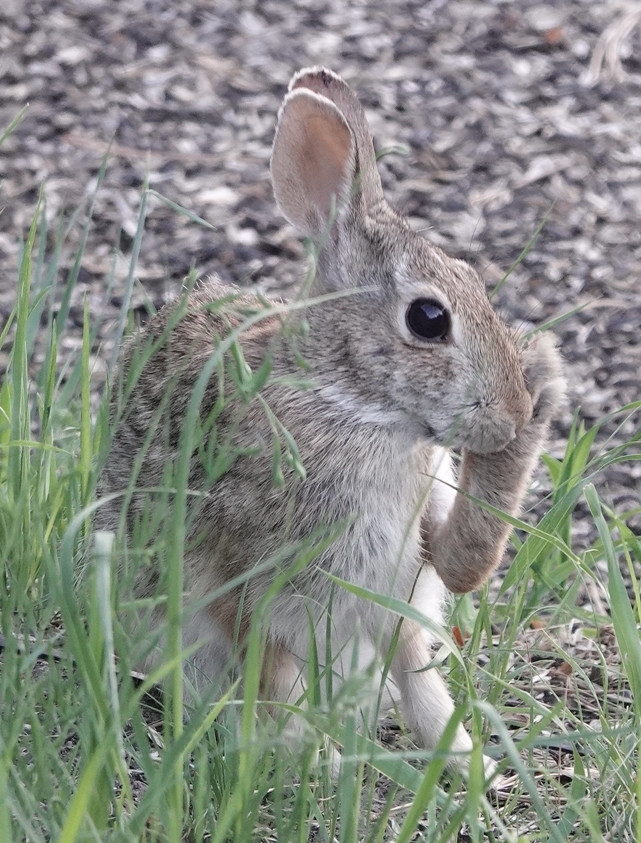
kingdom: Animalia
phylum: Chordata
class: Mammalia
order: Lagomorpha
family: Leporidae
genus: Sylvilagus
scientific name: Sylvilagus floridanus
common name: Eastern cottontail
